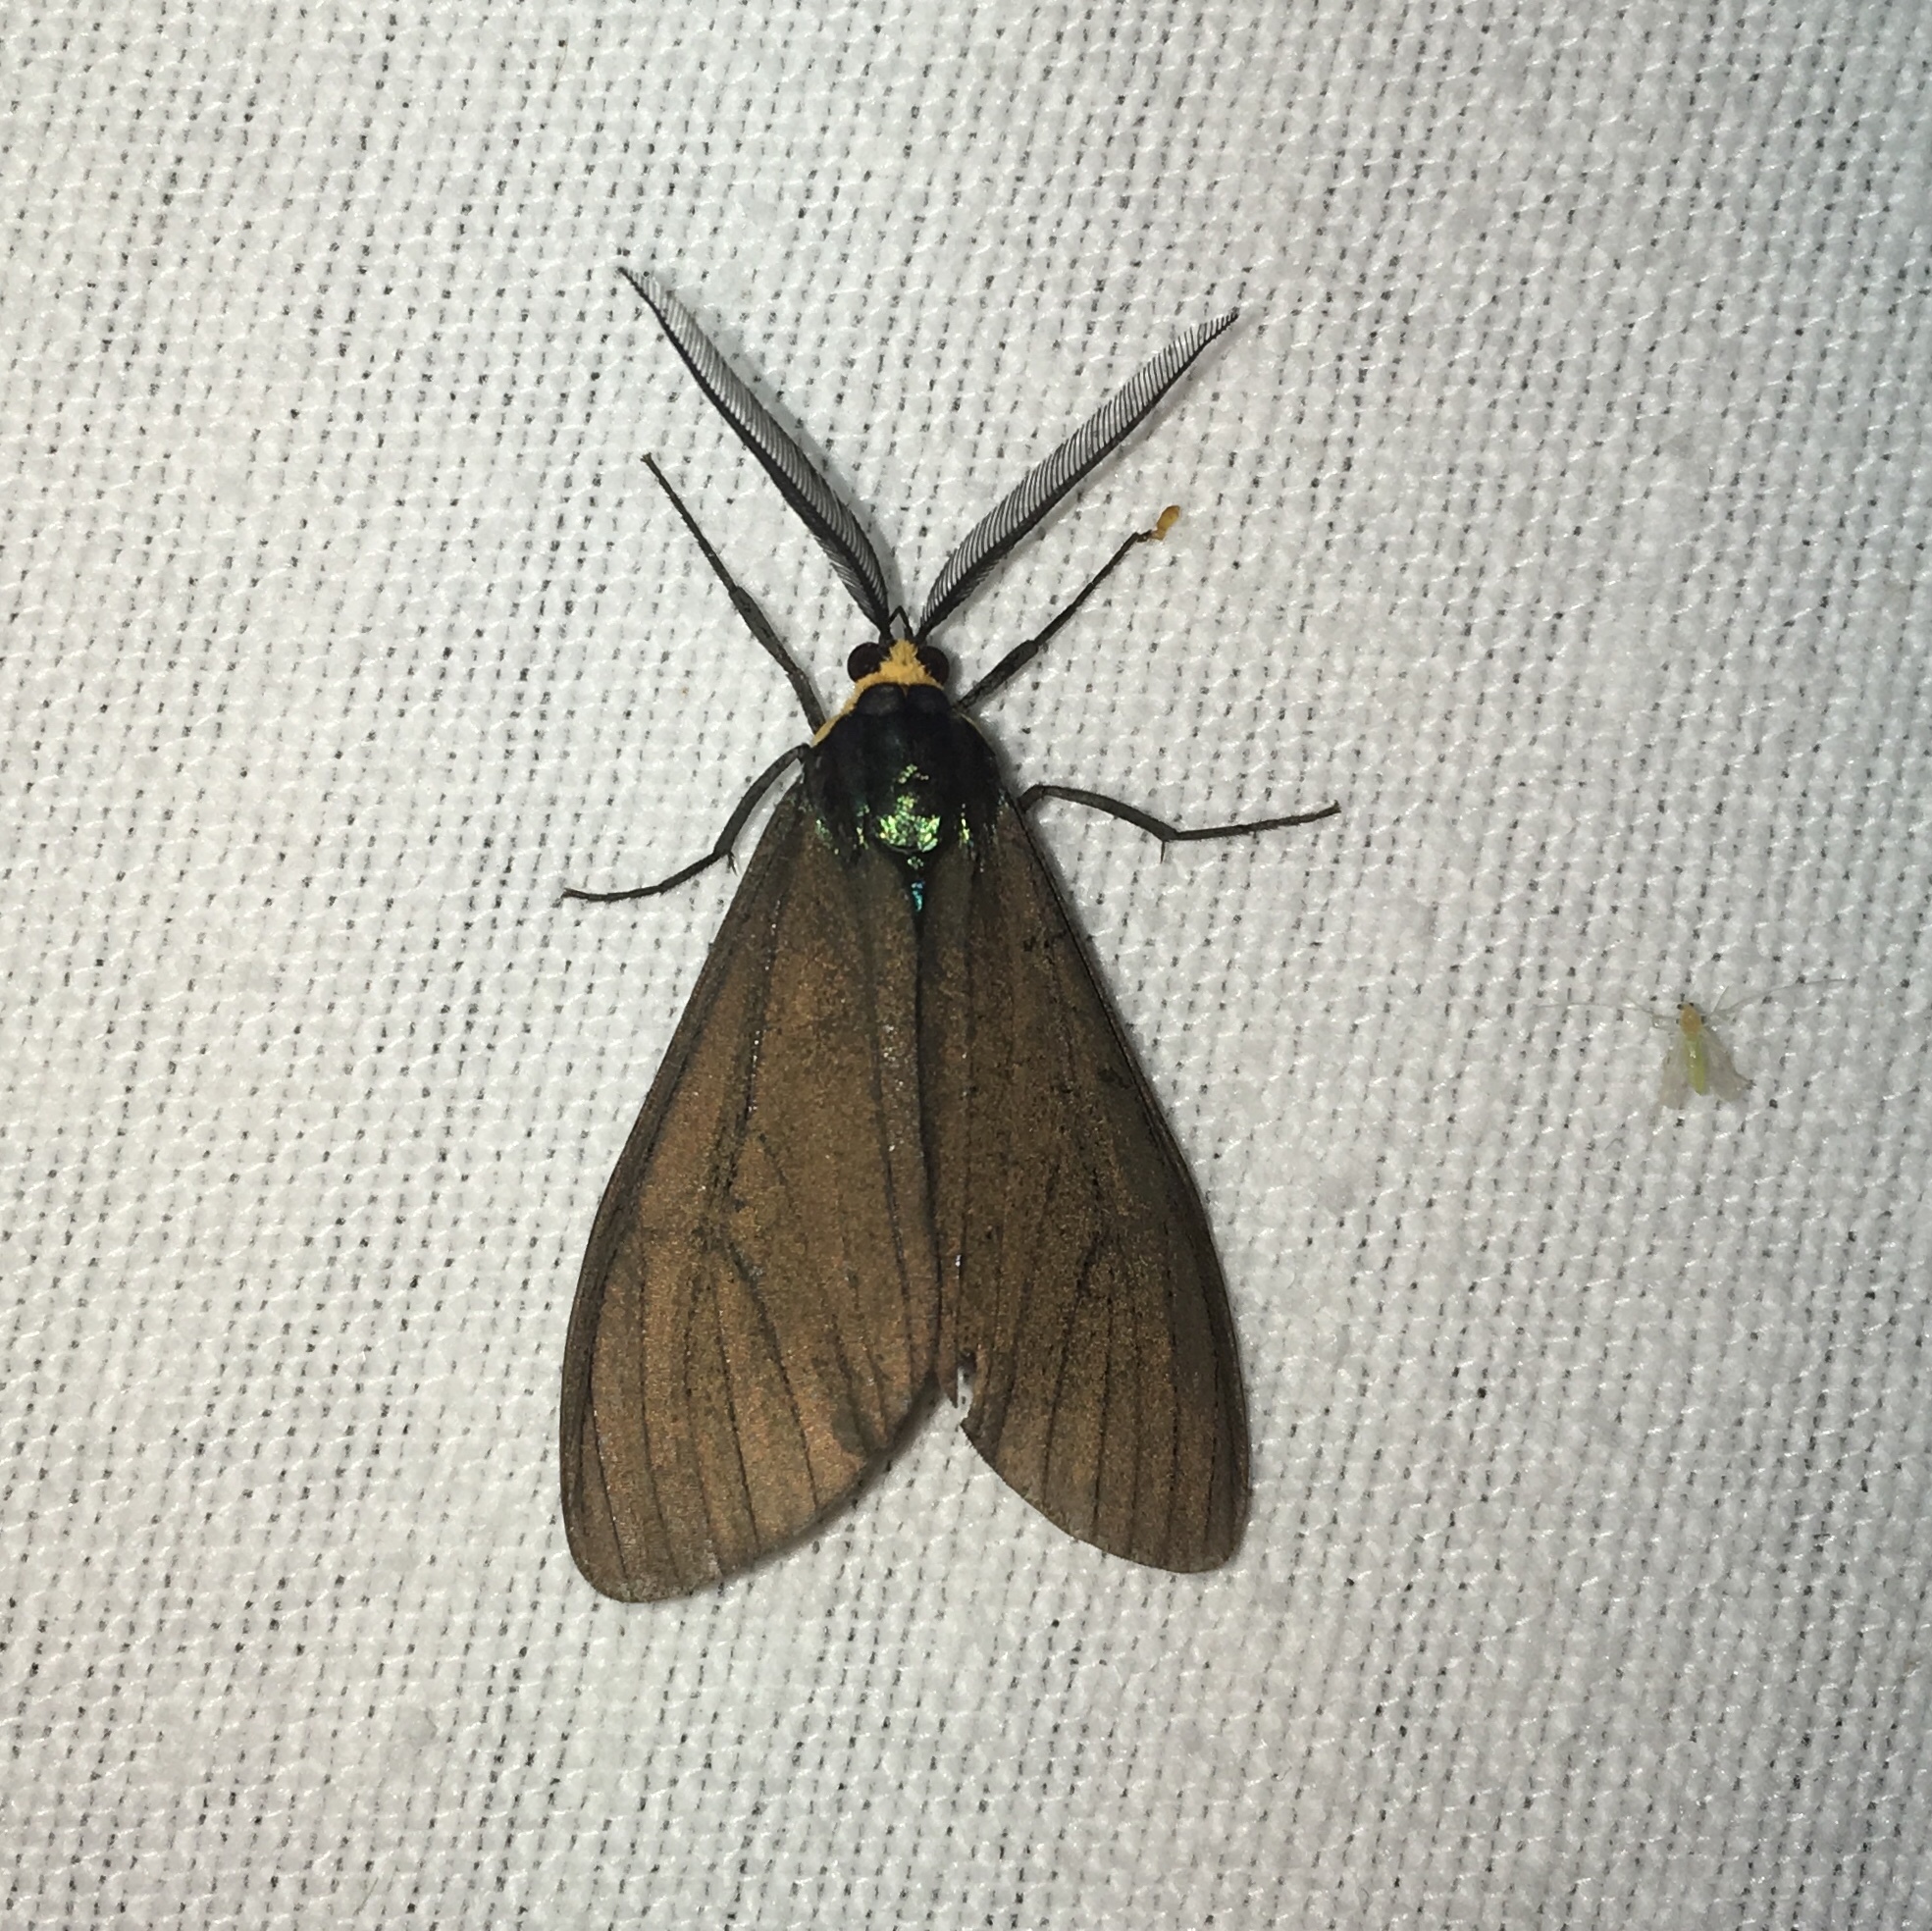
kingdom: Animalia
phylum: Arthropoda
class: Insecta
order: Lepidoptera
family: Erebidae
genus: Ctenucha
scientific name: Ctenucha virginica
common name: Virginia ctenucha moth
